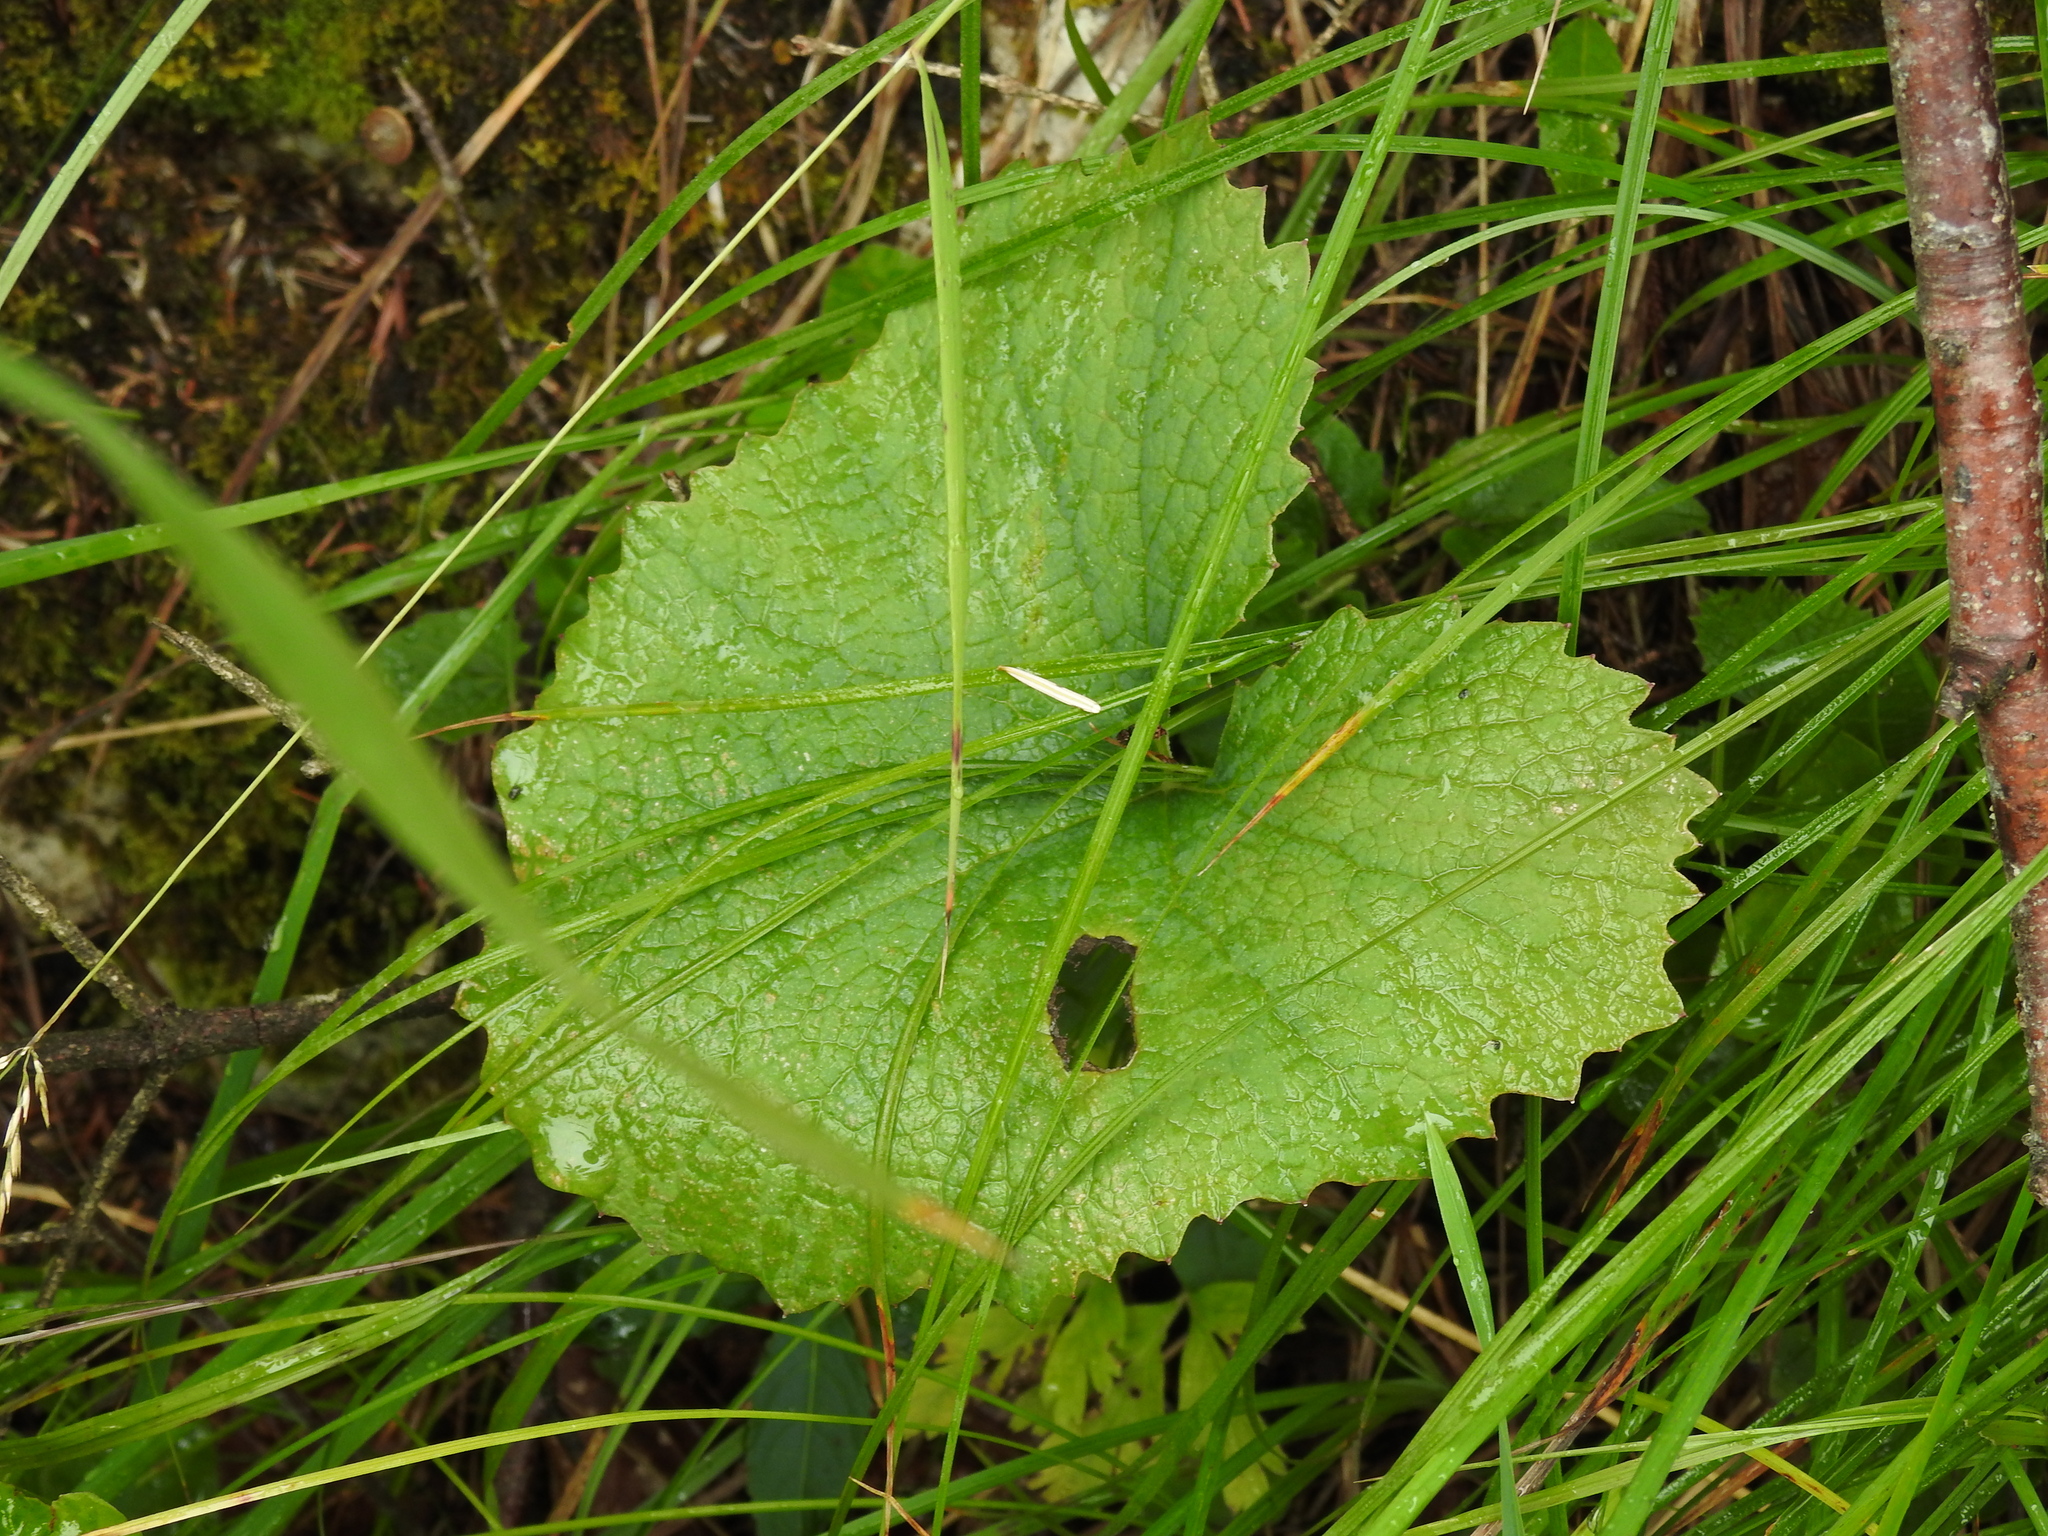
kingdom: Plantae
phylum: Tracheophyta
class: Magnoliopsida
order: Asterales
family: Asteraceae
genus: Adenostyles
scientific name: Adenostyles alpina
